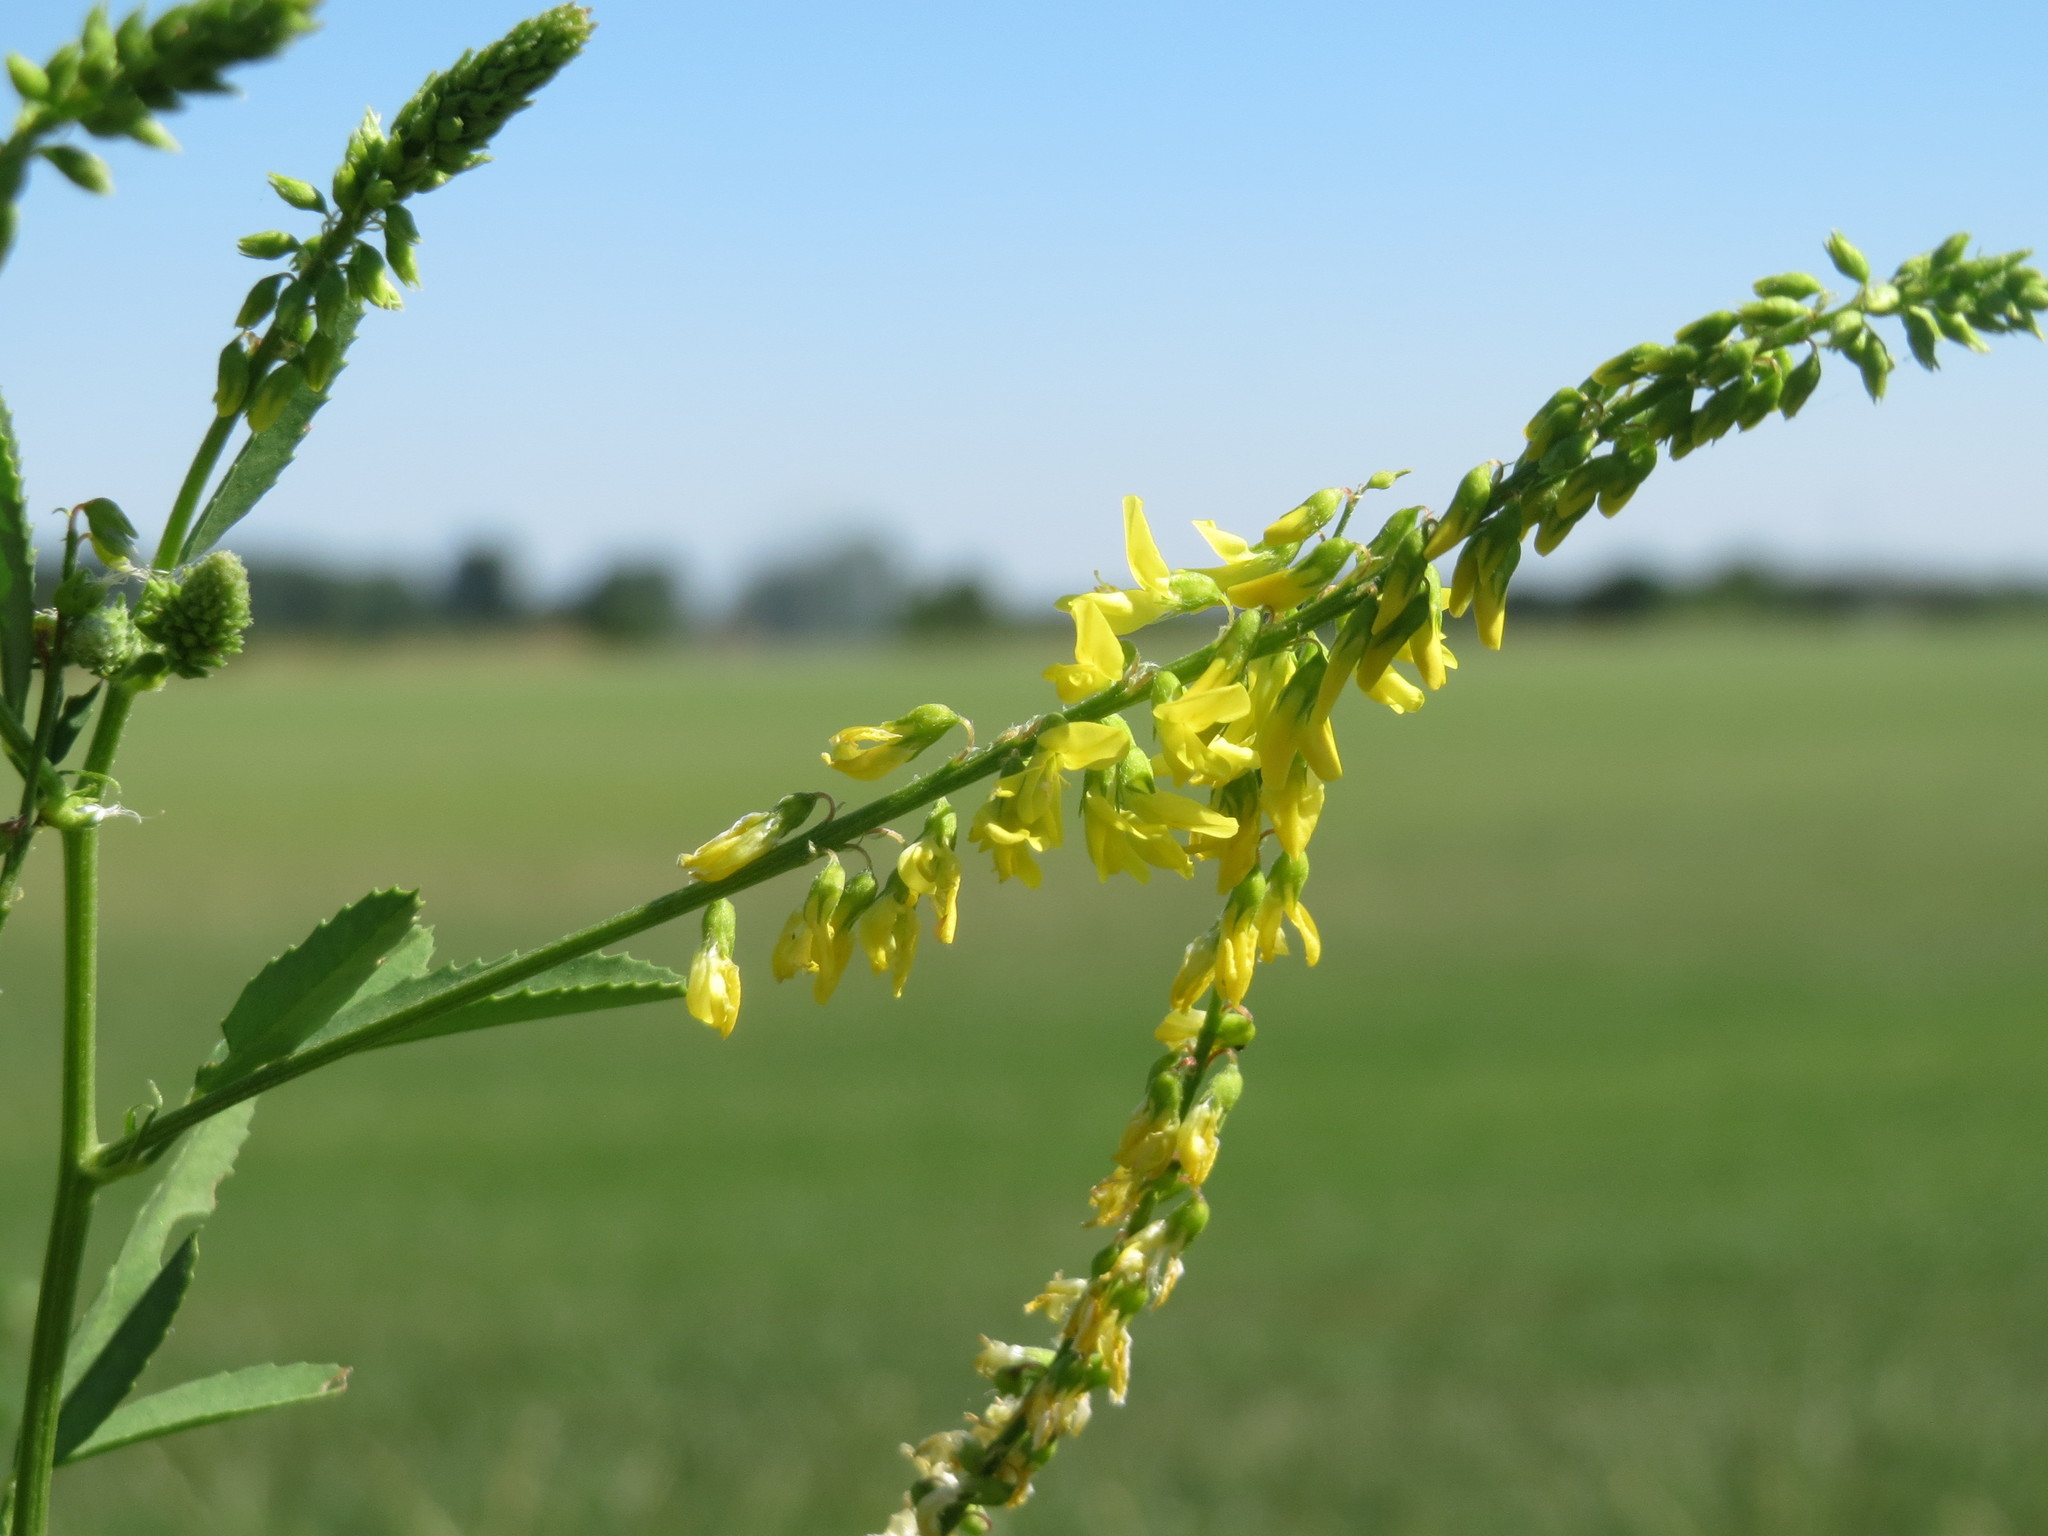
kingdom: Plantae
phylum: Tracheophyta
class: Magnoliopsida
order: Fabales
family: Fabaceae
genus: Melilotus
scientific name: Melilotus officinalis
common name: Sweetclover
